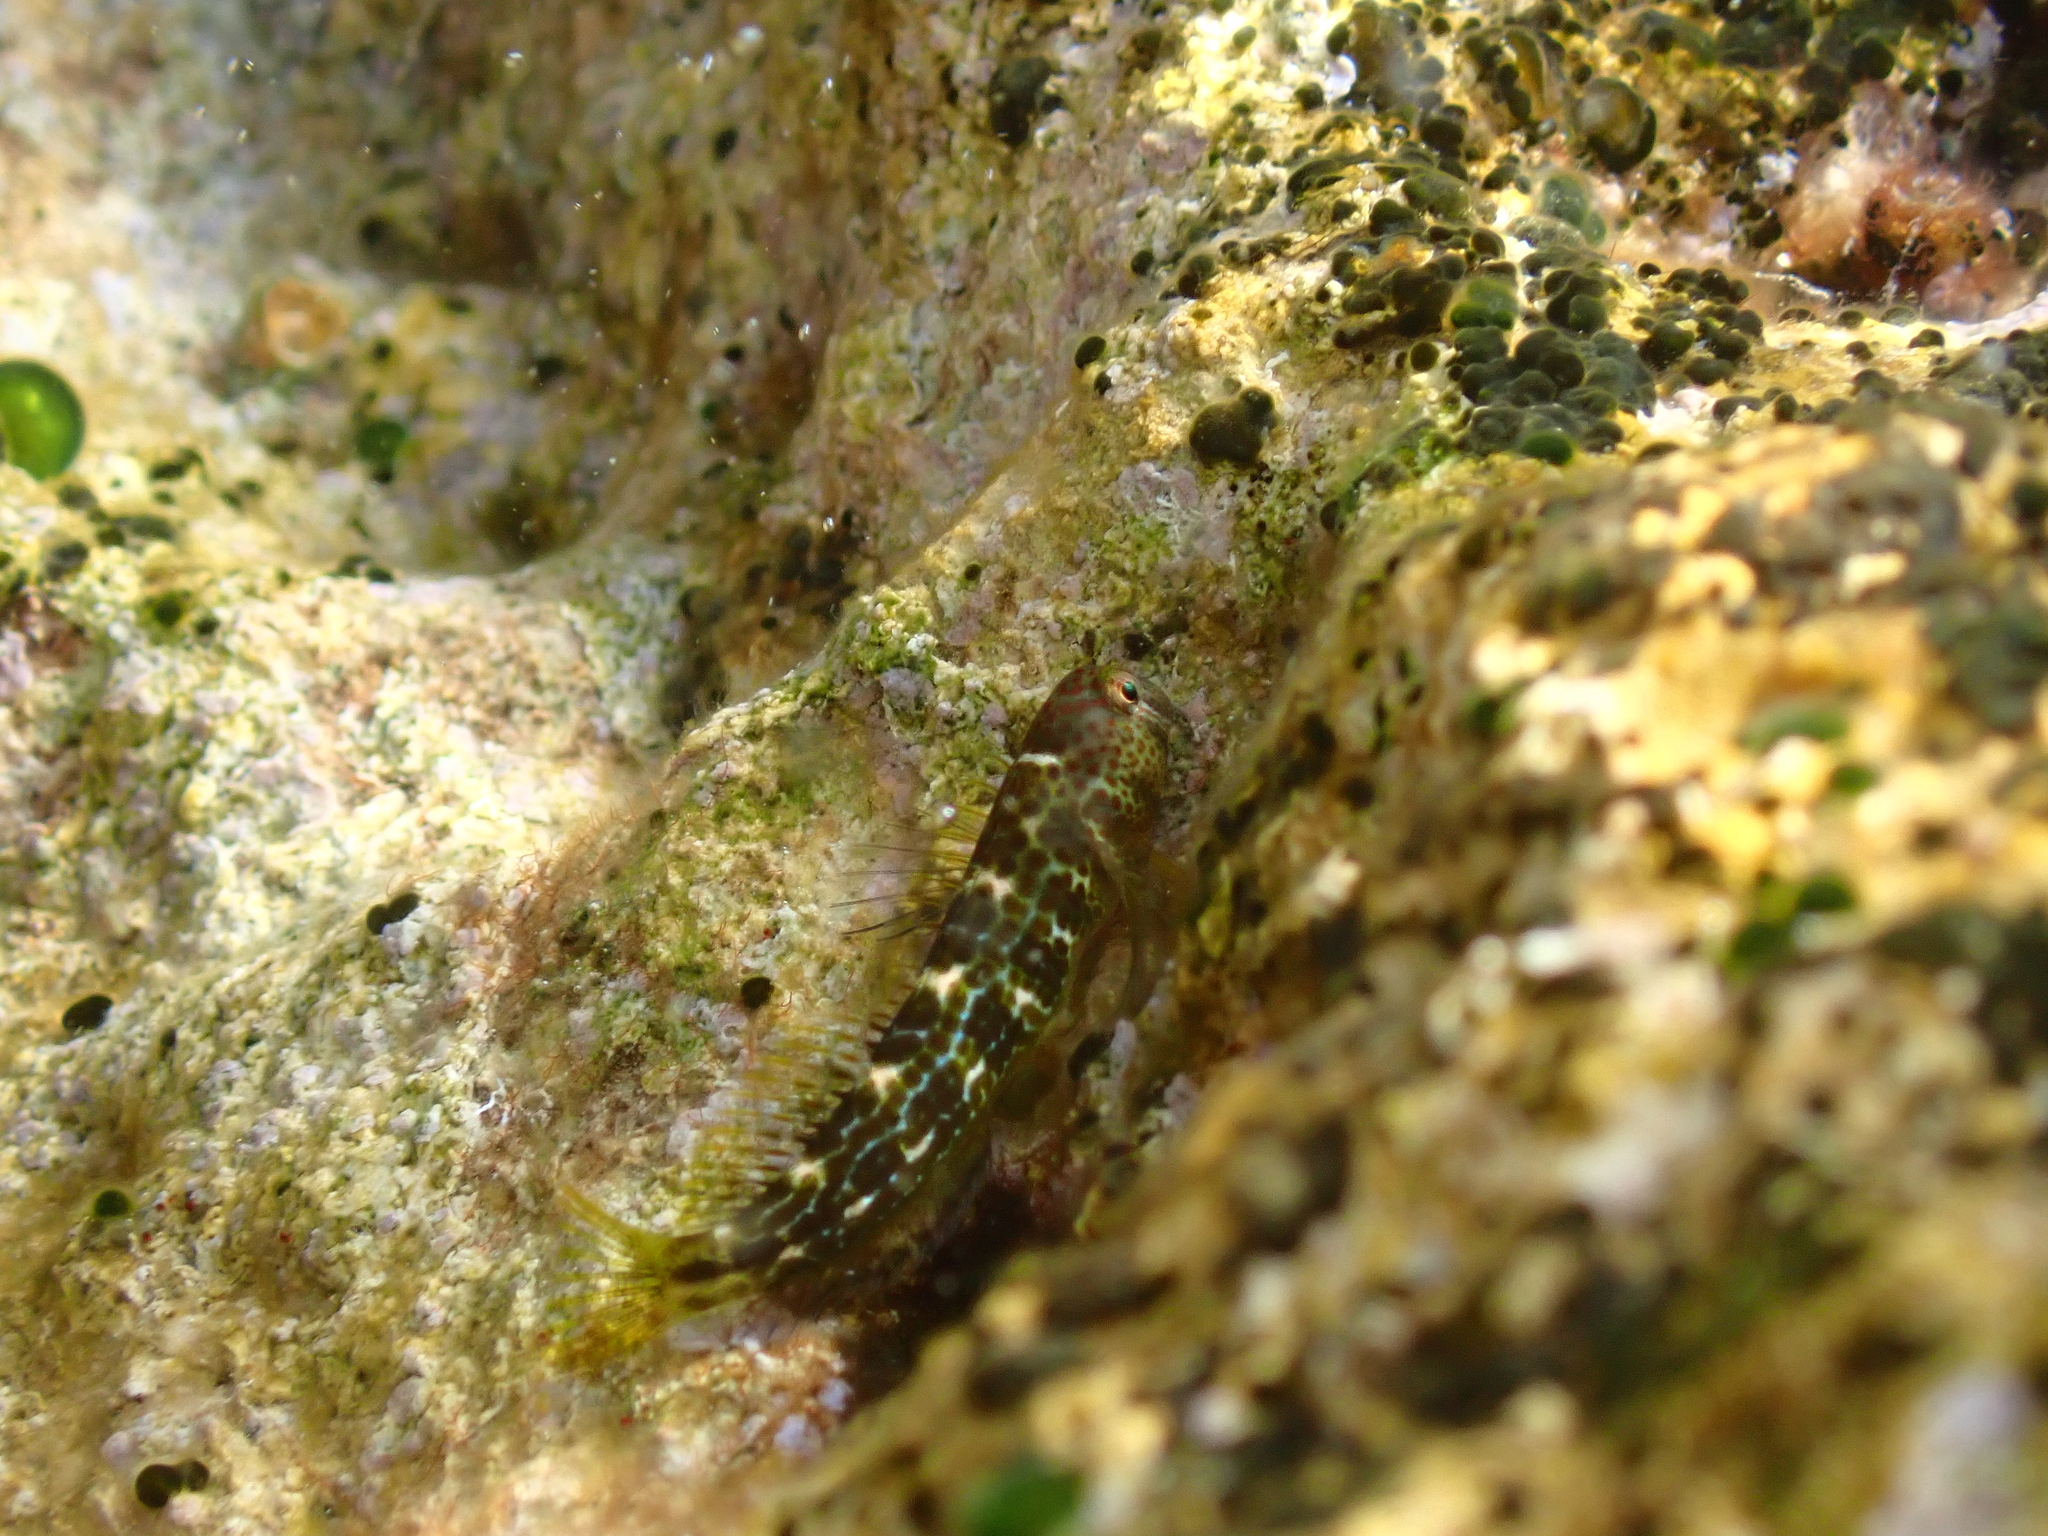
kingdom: Animalia
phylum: Chordata
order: Perciformes
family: Blenniidae
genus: Microlipophrys
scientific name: Microlipophrys canevae
